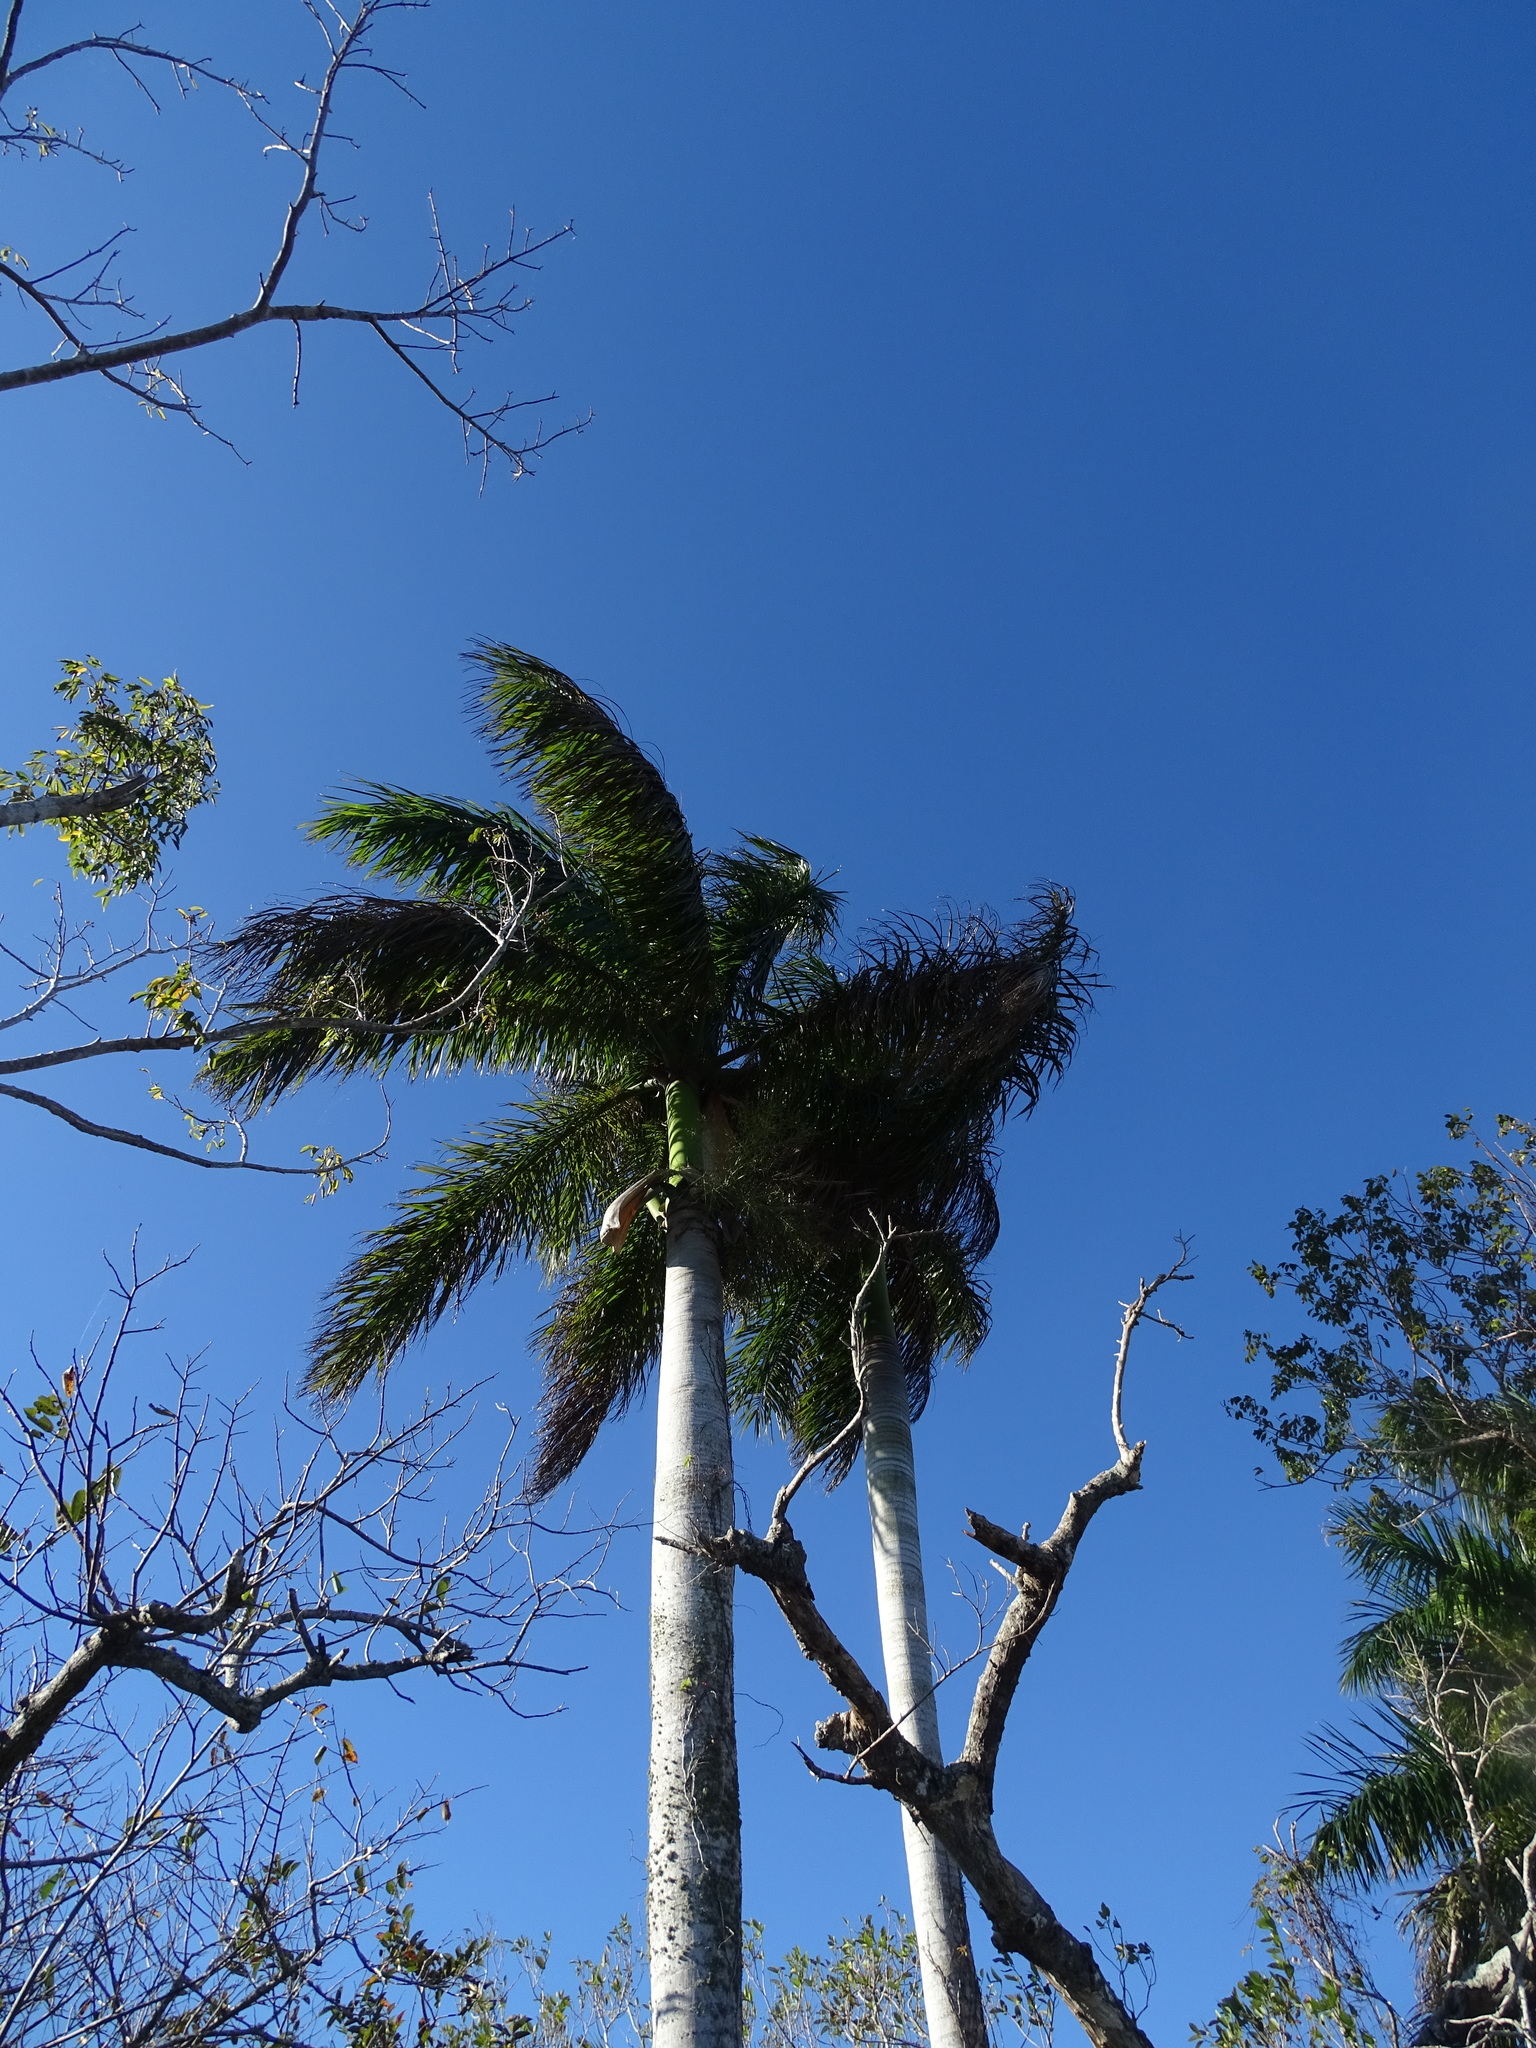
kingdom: Plantae
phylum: Tracheophyta
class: Liliopsida
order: Arecales
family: Arecaceae
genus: Roystonea
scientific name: Roystonea regia
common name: Florida royal palm
